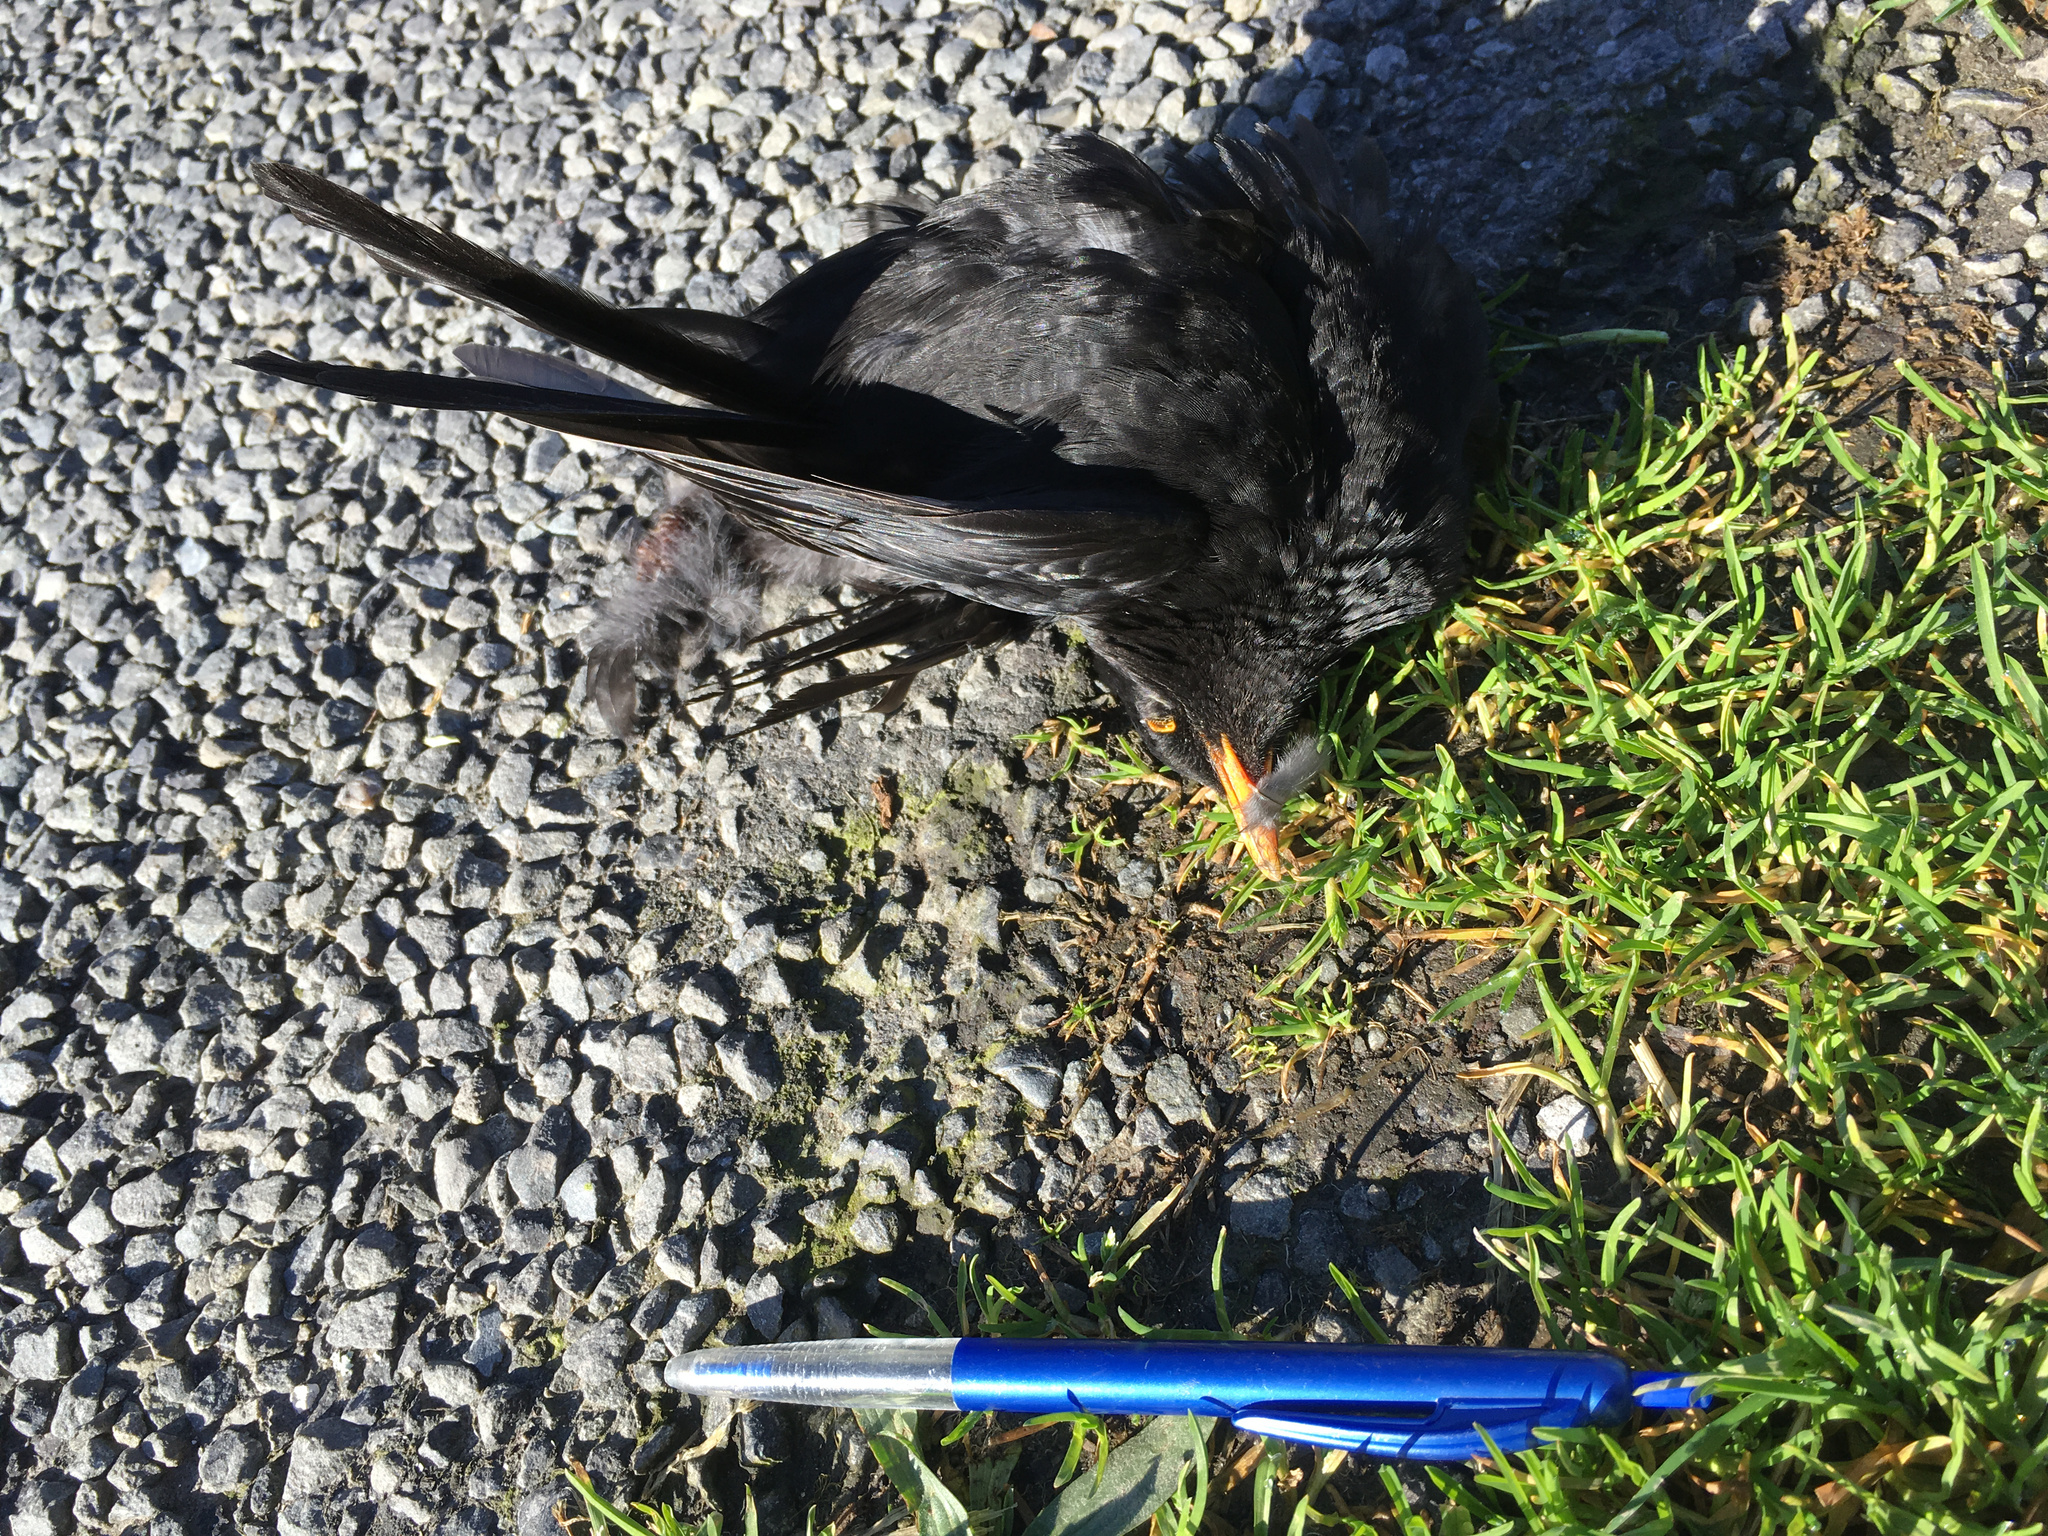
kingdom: Animalia
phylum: Chordata
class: Aves
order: Passeriformes
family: Turdidae
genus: Turdus
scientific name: Turdus merula
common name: Common blackbird
